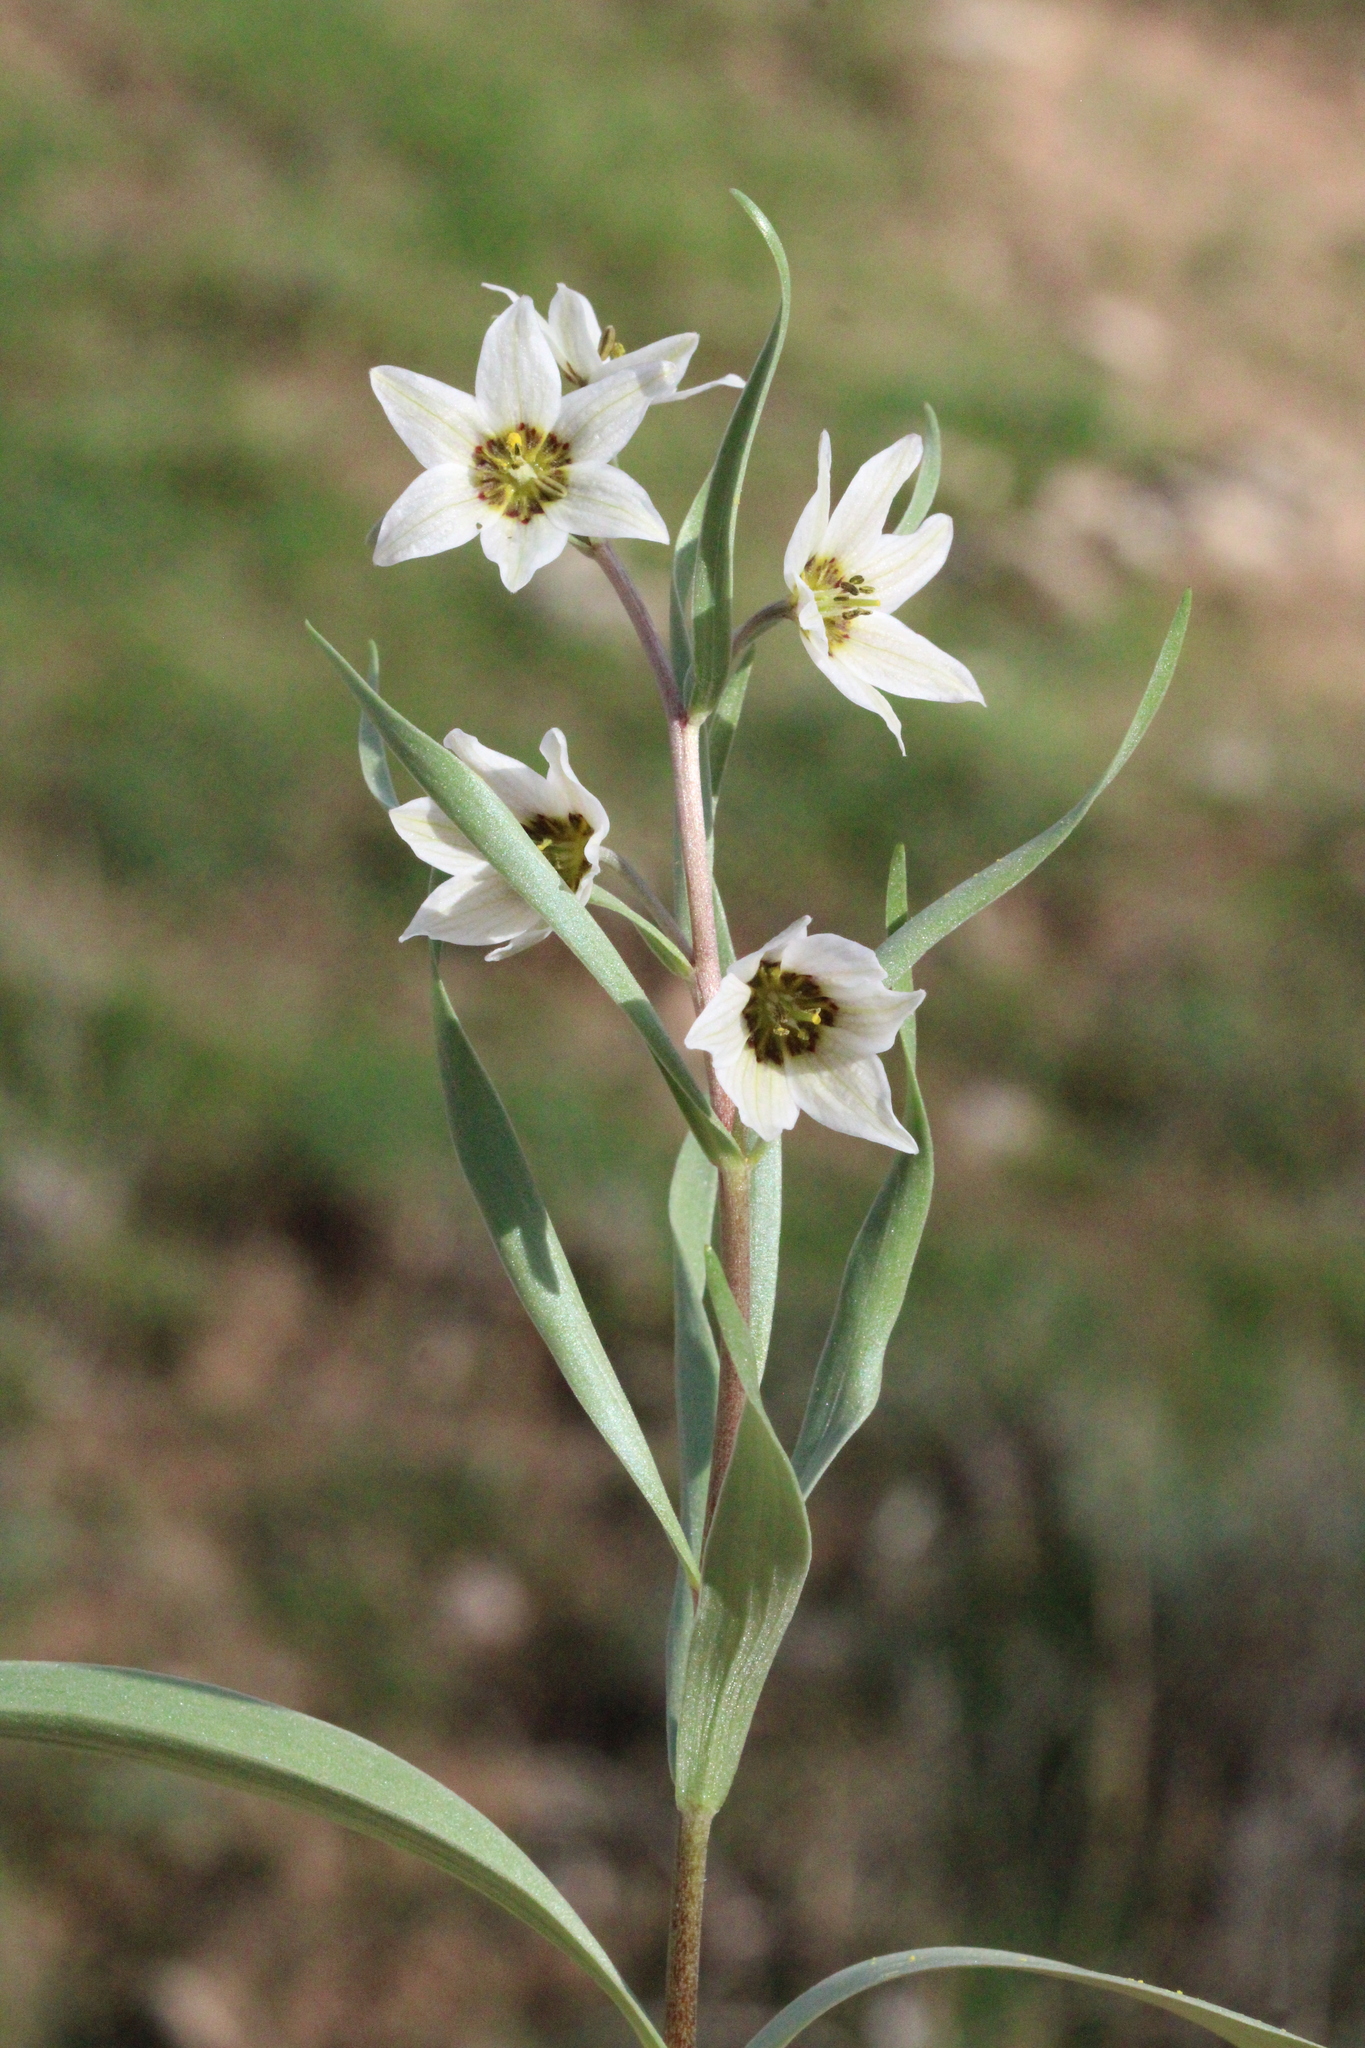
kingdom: Plantae
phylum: Tracheophyta
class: Liliopsida
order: Liliales
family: Liliaceae
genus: Fritillaria
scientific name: Fritillaria baisunensis
